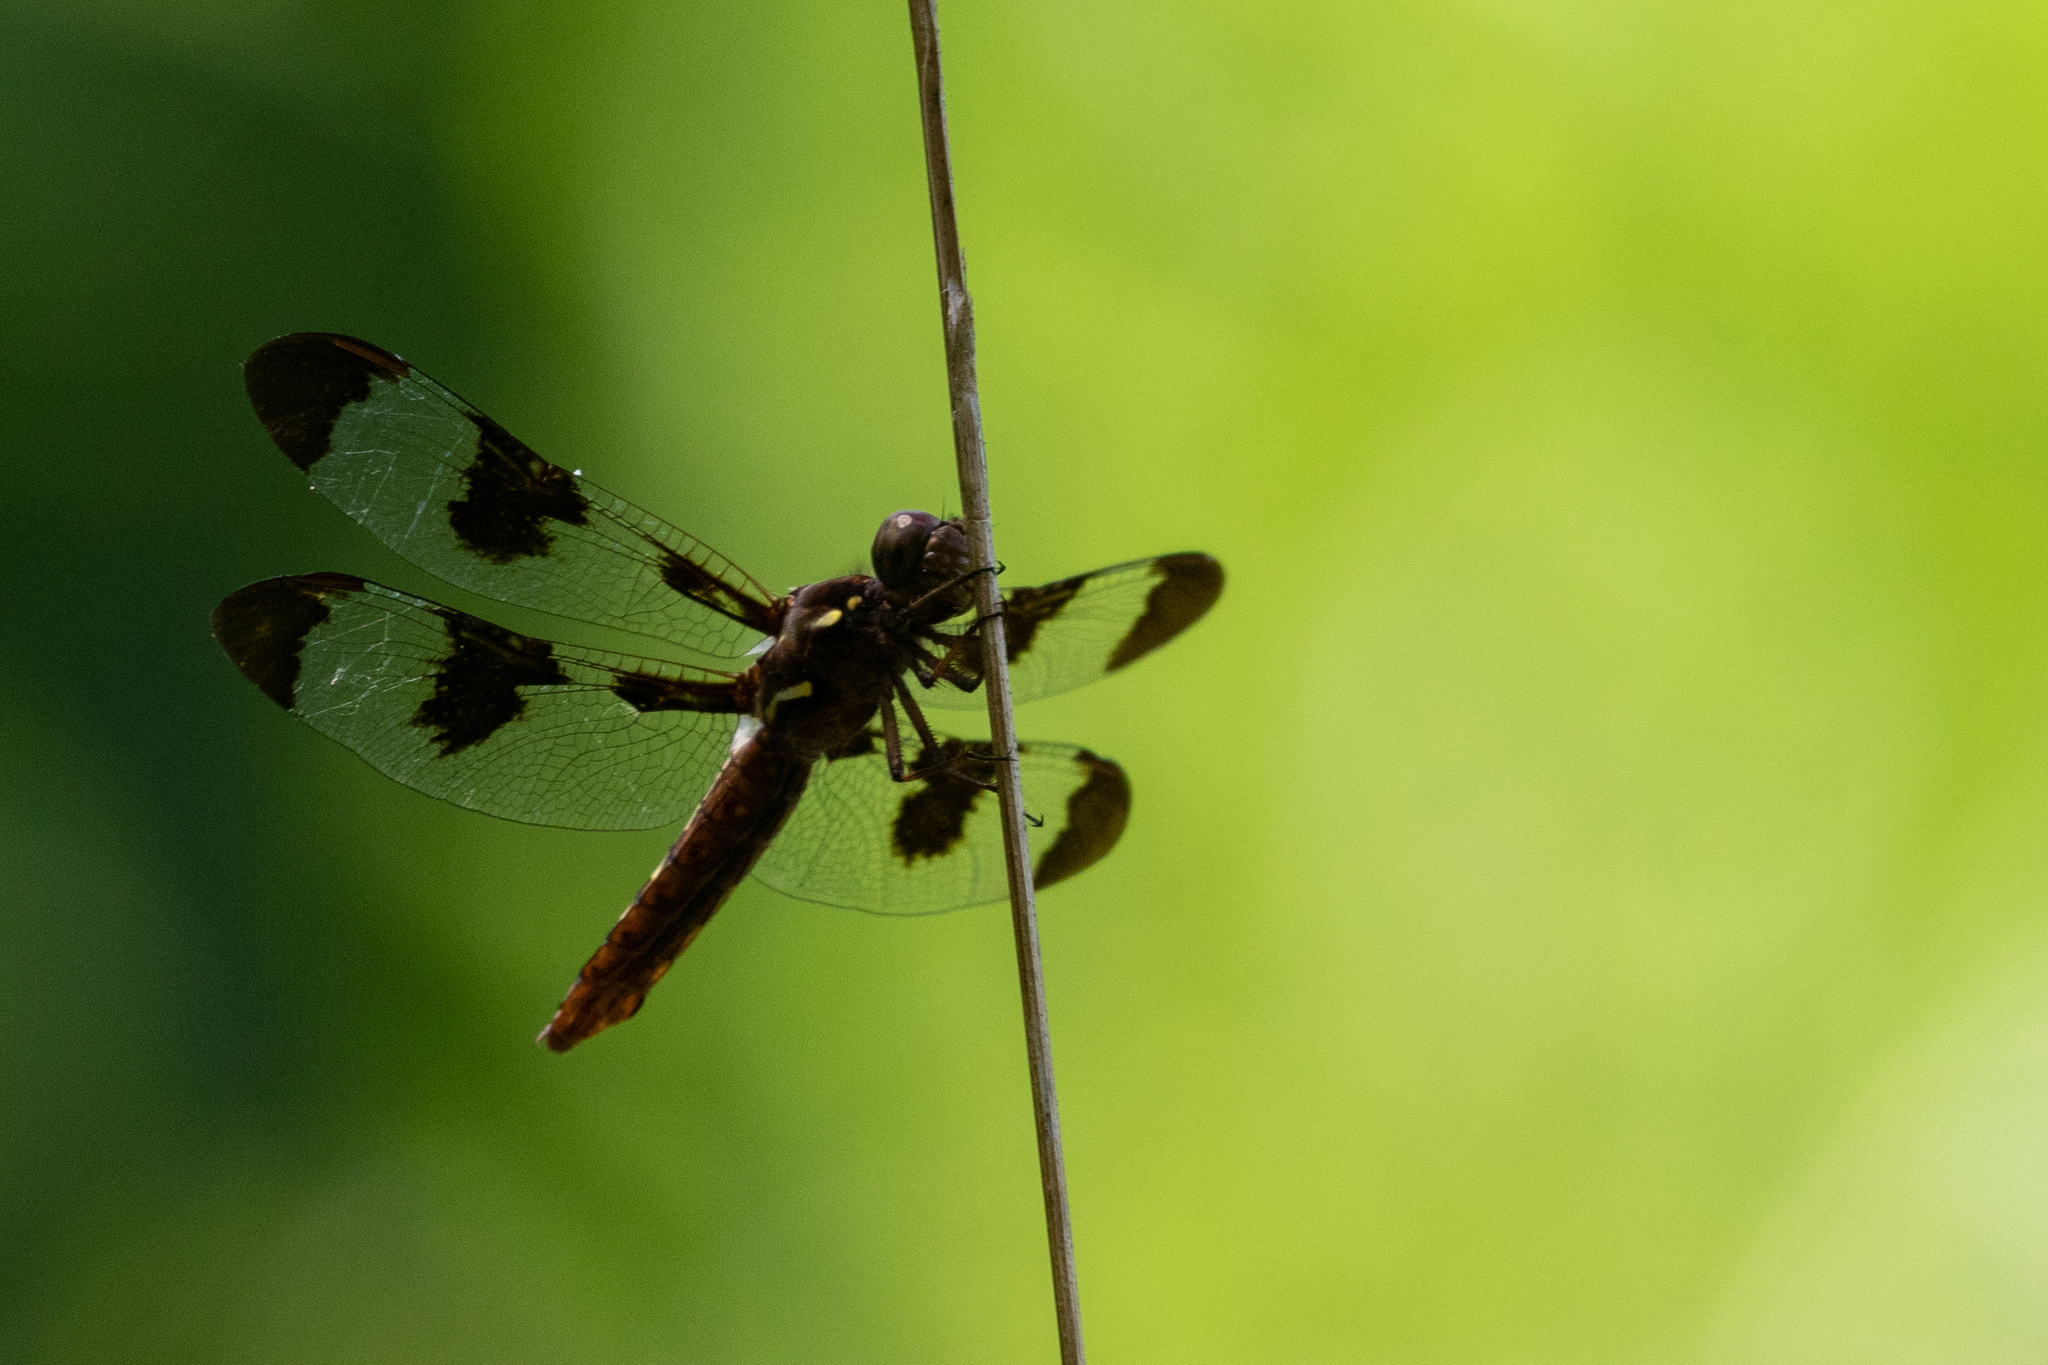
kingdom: Animalia
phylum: Arthropoda
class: Insecta
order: Odonata
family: Libellulidae
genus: Plathemis
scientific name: Plathemis lydia
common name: Common whitetail
